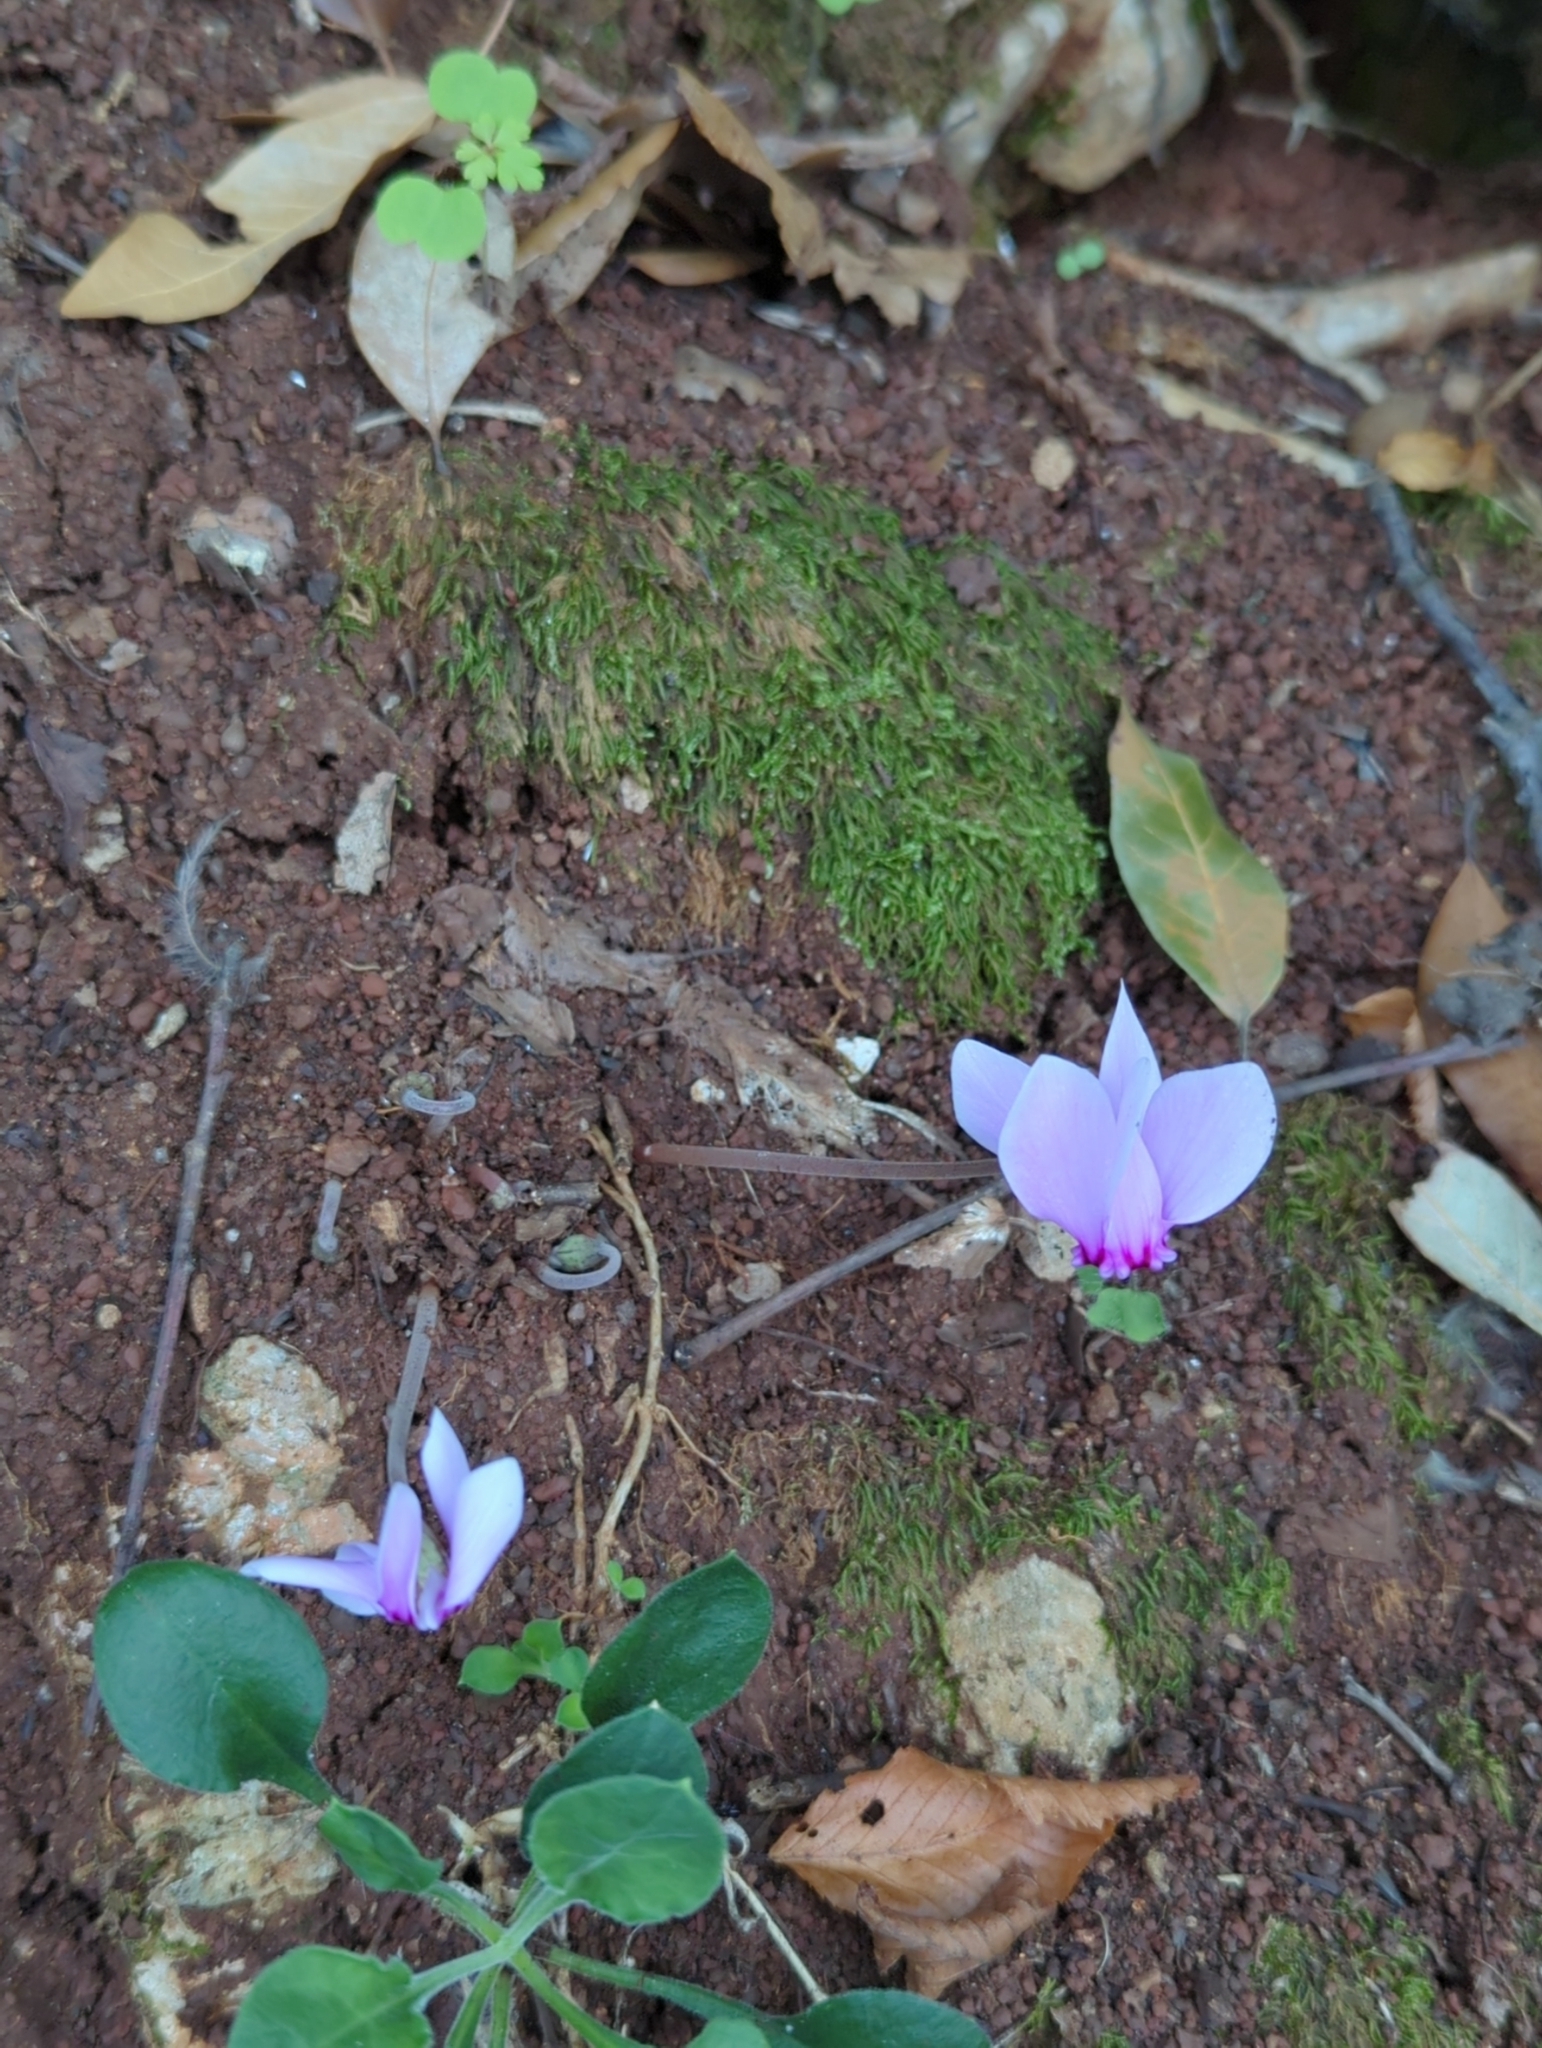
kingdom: Plantae
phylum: Tracheophyta
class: Magnoliopsida
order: Ericales
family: Primulaceae
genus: Cyclamen
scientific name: Cyclamen hederifolium
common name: Sowbread
